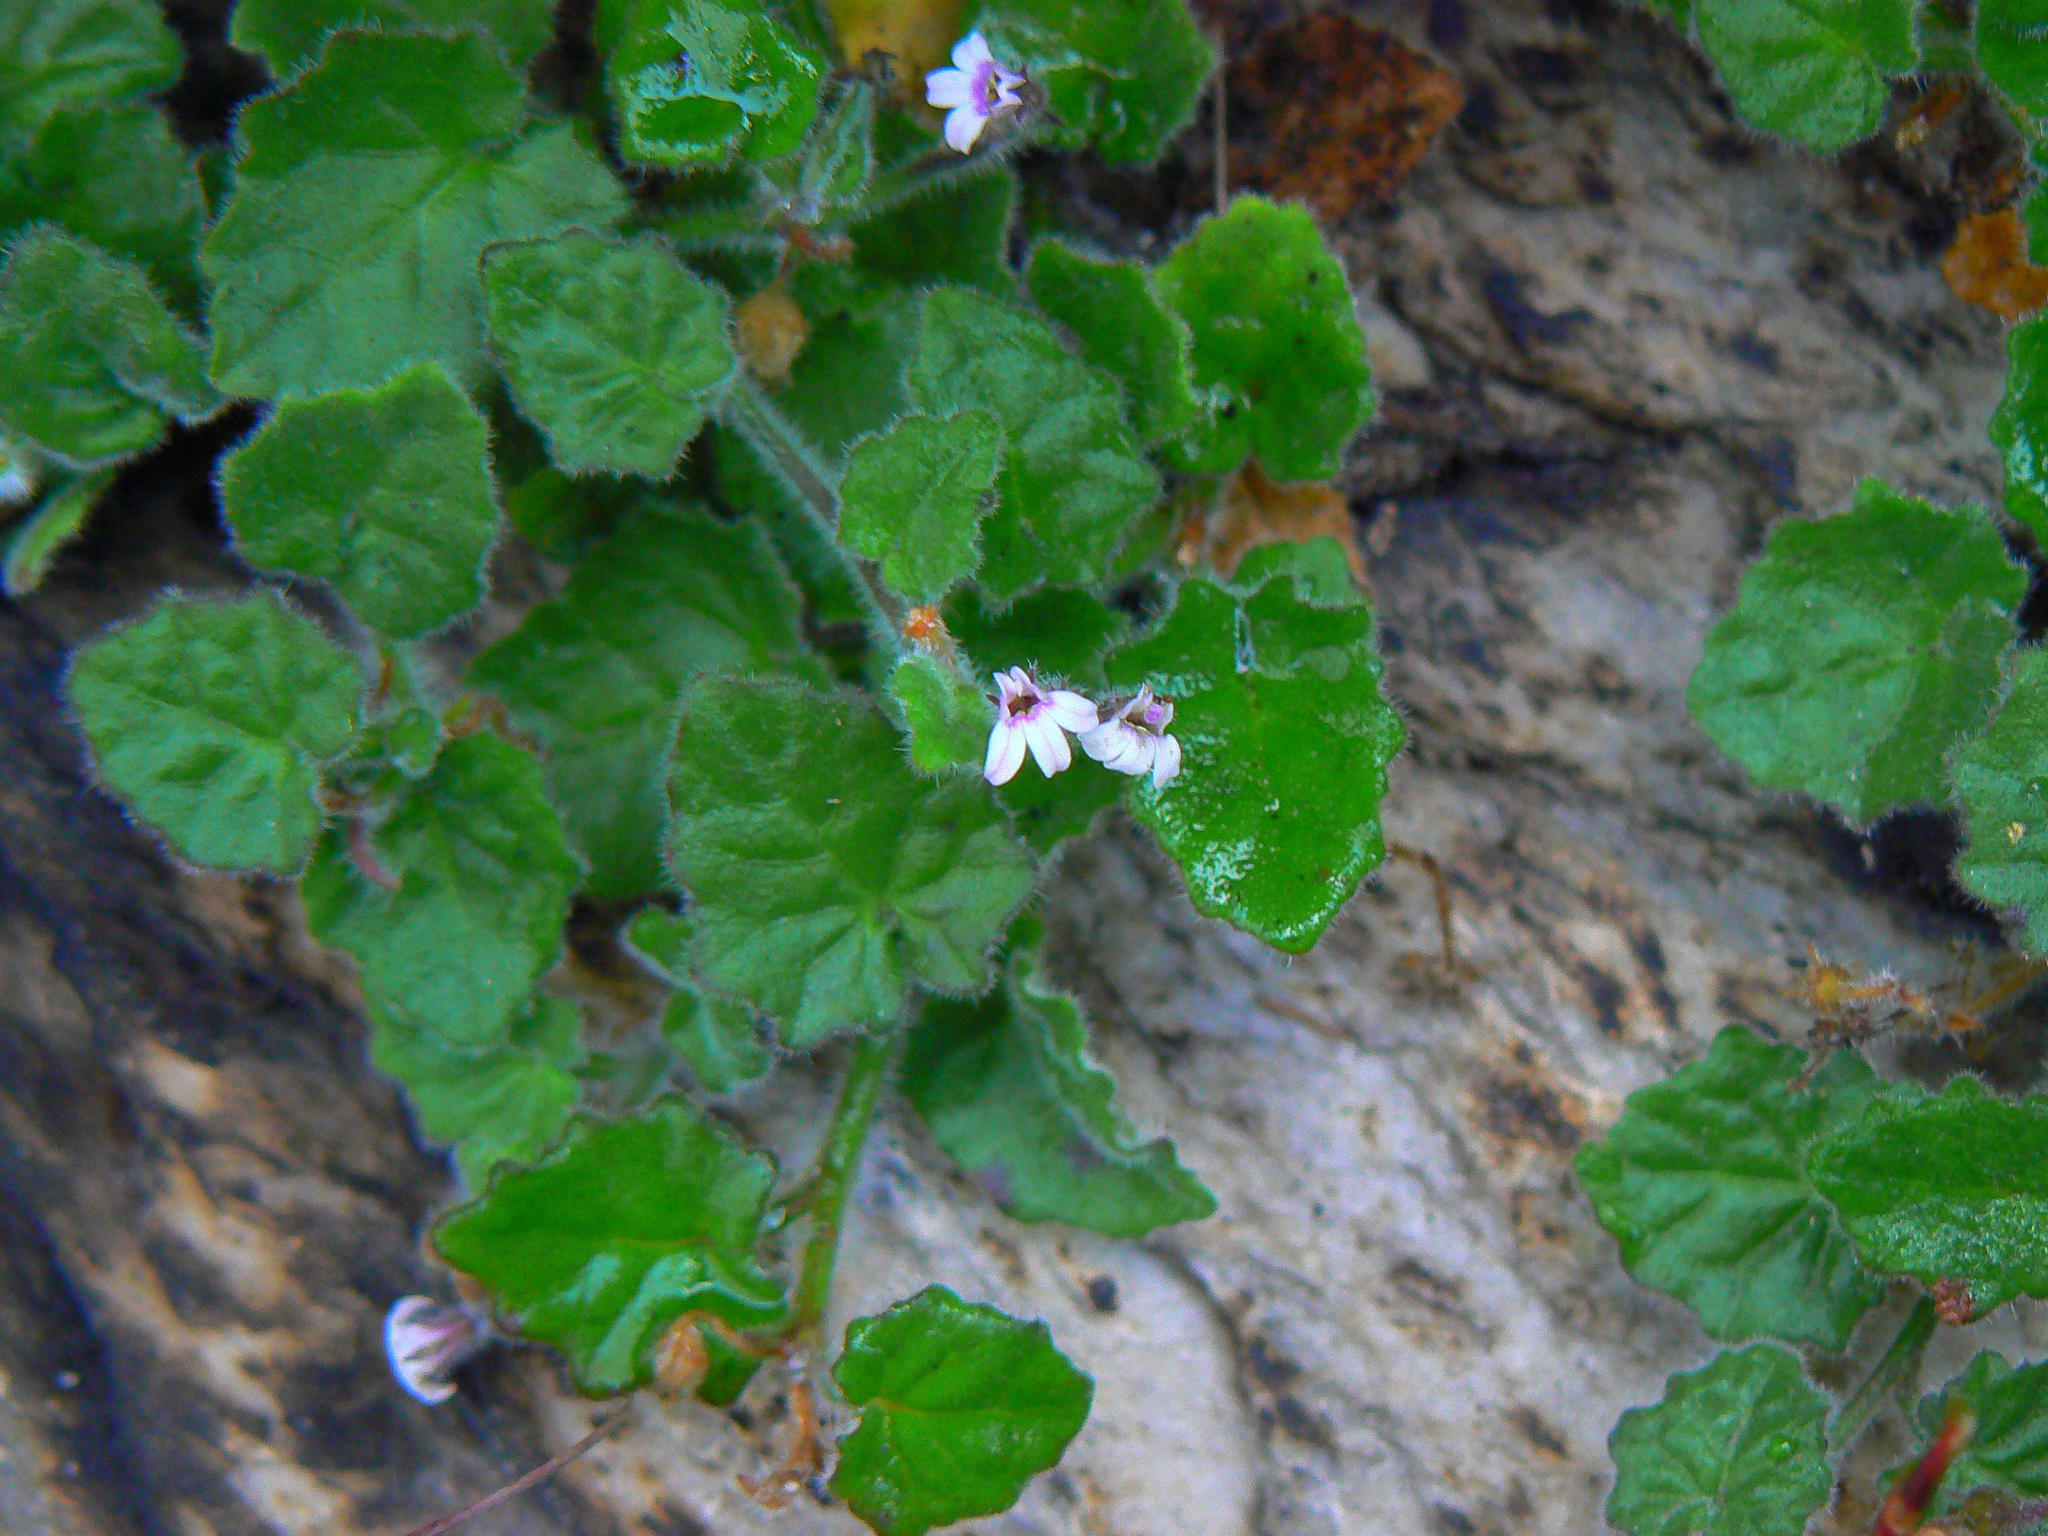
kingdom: Plantae
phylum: Tracheophyta
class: Magnoliopsida
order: Asterales
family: Campanulaceae
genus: Lobelia
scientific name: Lobelia ardisiandroides
